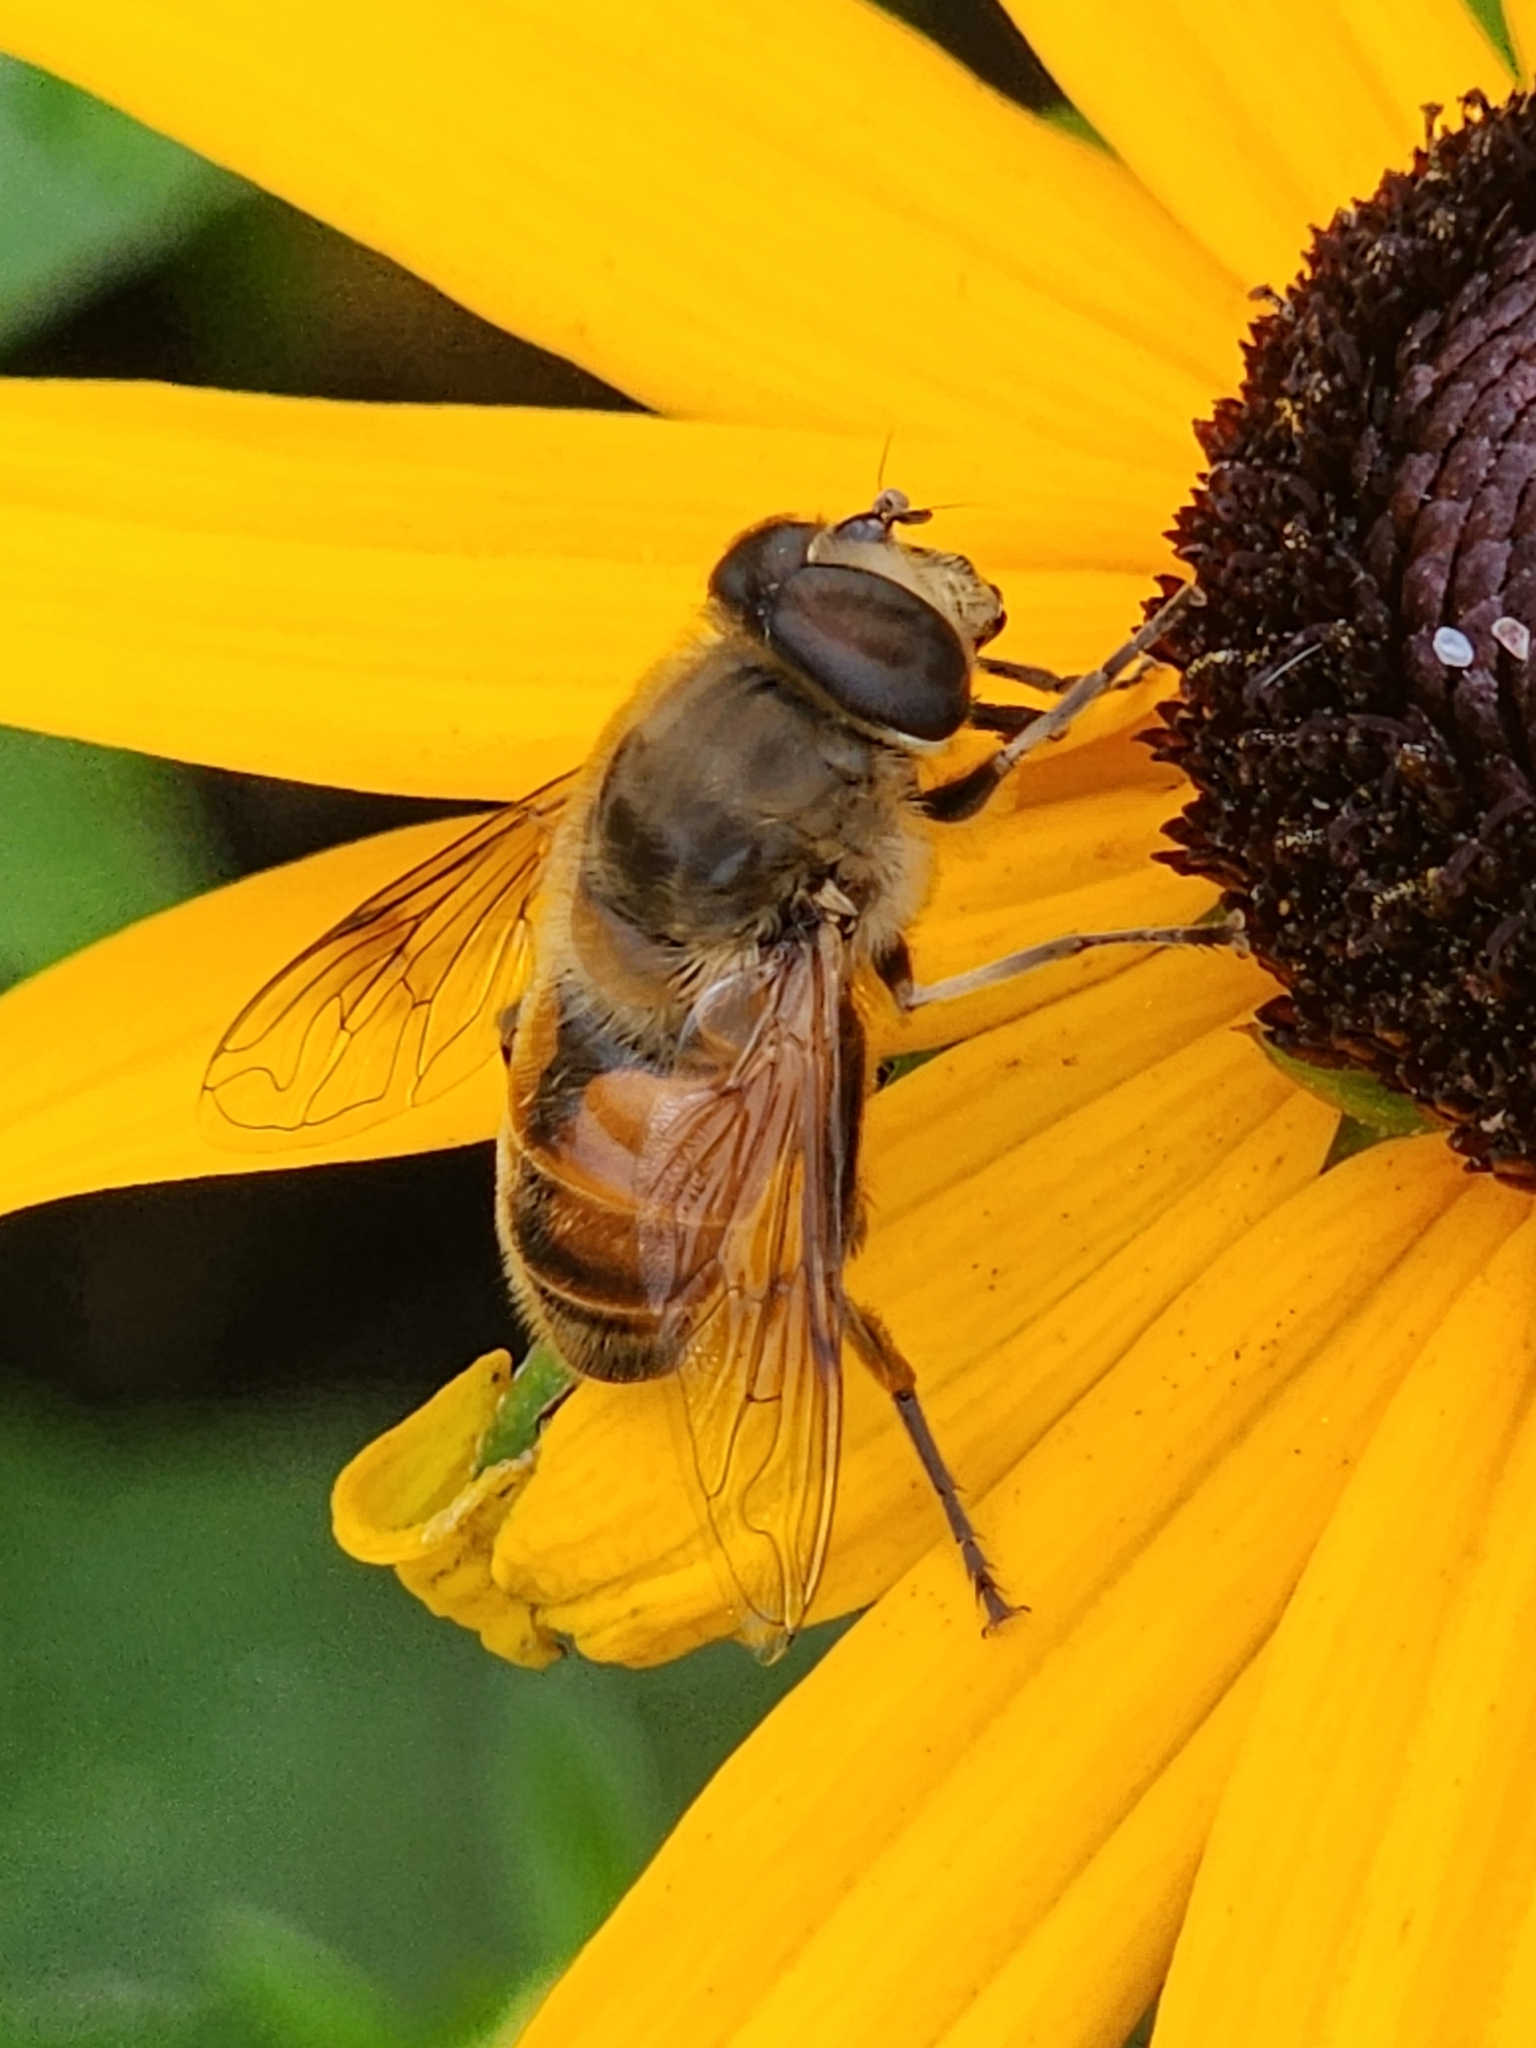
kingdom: Animalia
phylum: Arthropoda
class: Insecta
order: Diptera
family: Syrphidae
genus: Eristalis
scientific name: Eristalis tenax
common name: Drone fly
